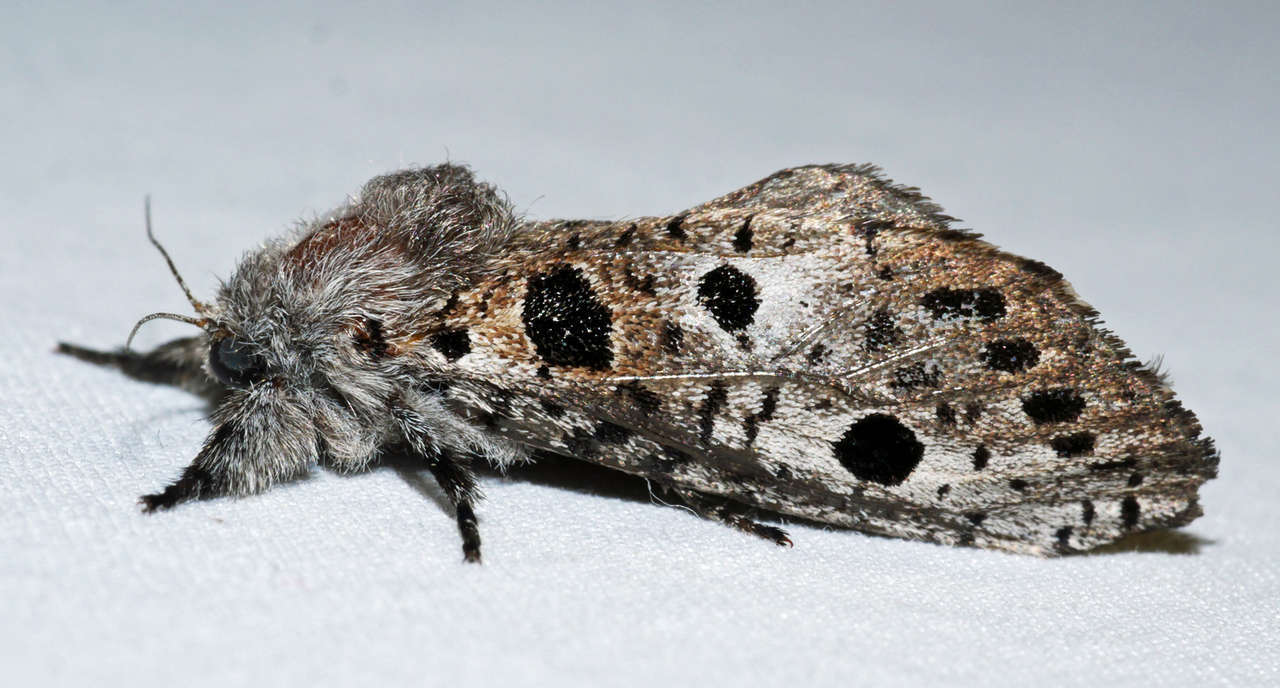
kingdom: Animalia
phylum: Arthropoda
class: Insecta
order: Lepidoptera
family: Cossidae
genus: Sympycnodes
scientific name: Sympycnodes dunnorum
